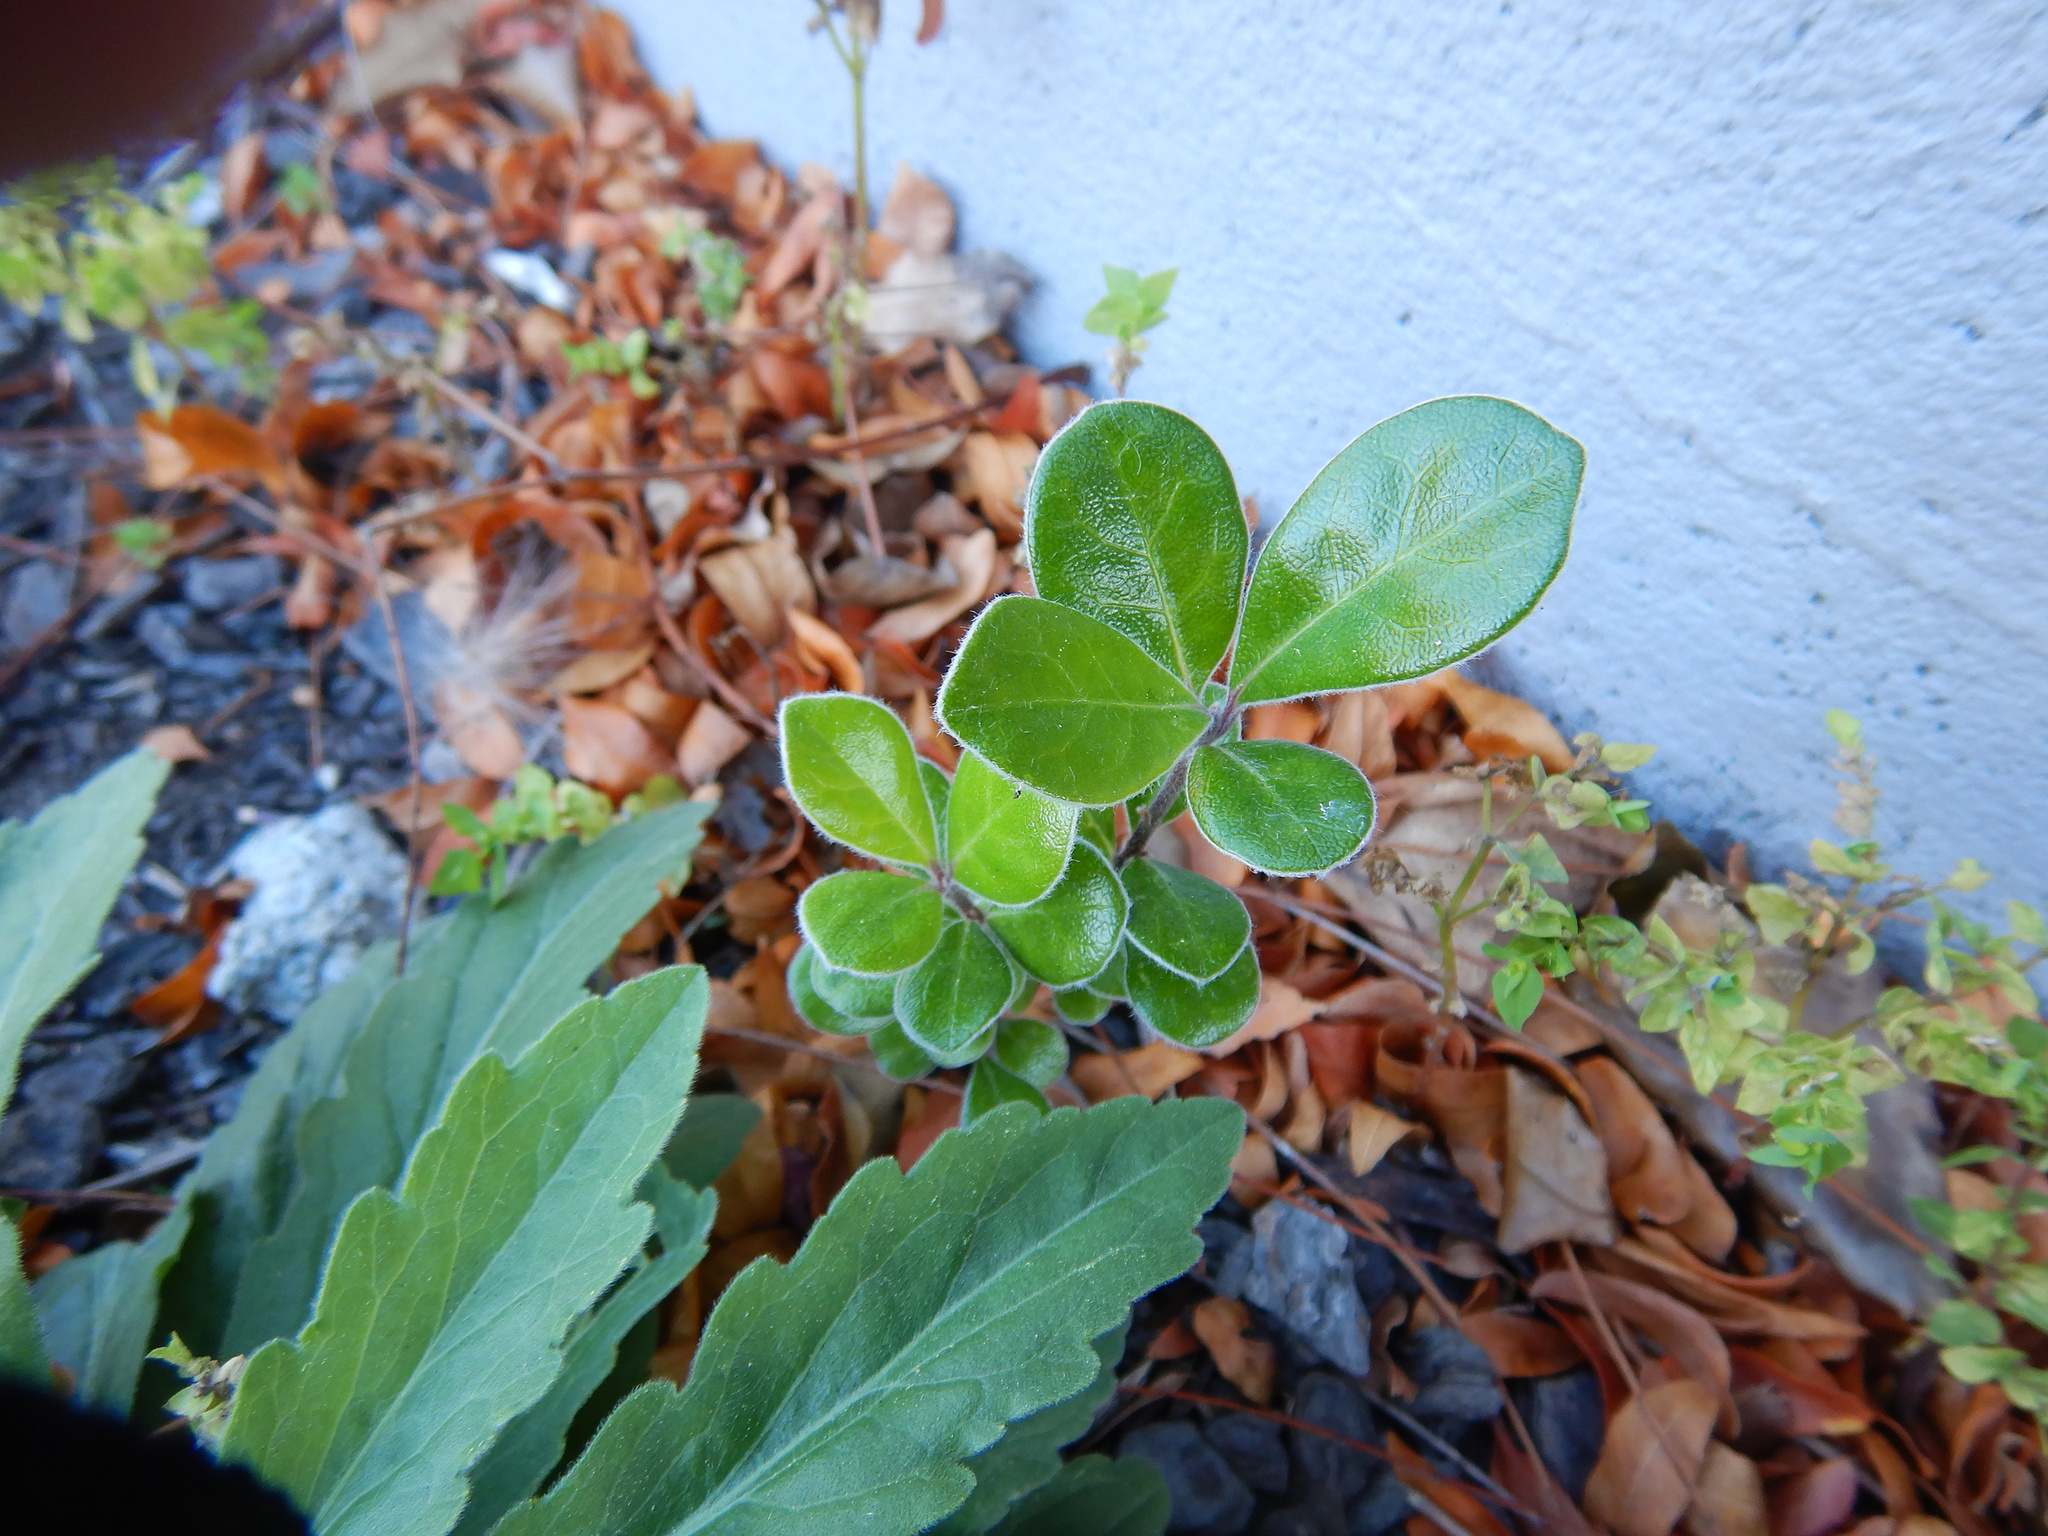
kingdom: Plantae
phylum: Tracheophyta
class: Magnoliopsida
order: Apiales
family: Pittosporaceae
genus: Pittosporum
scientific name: Pittosporum crassifolium
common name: Karo
